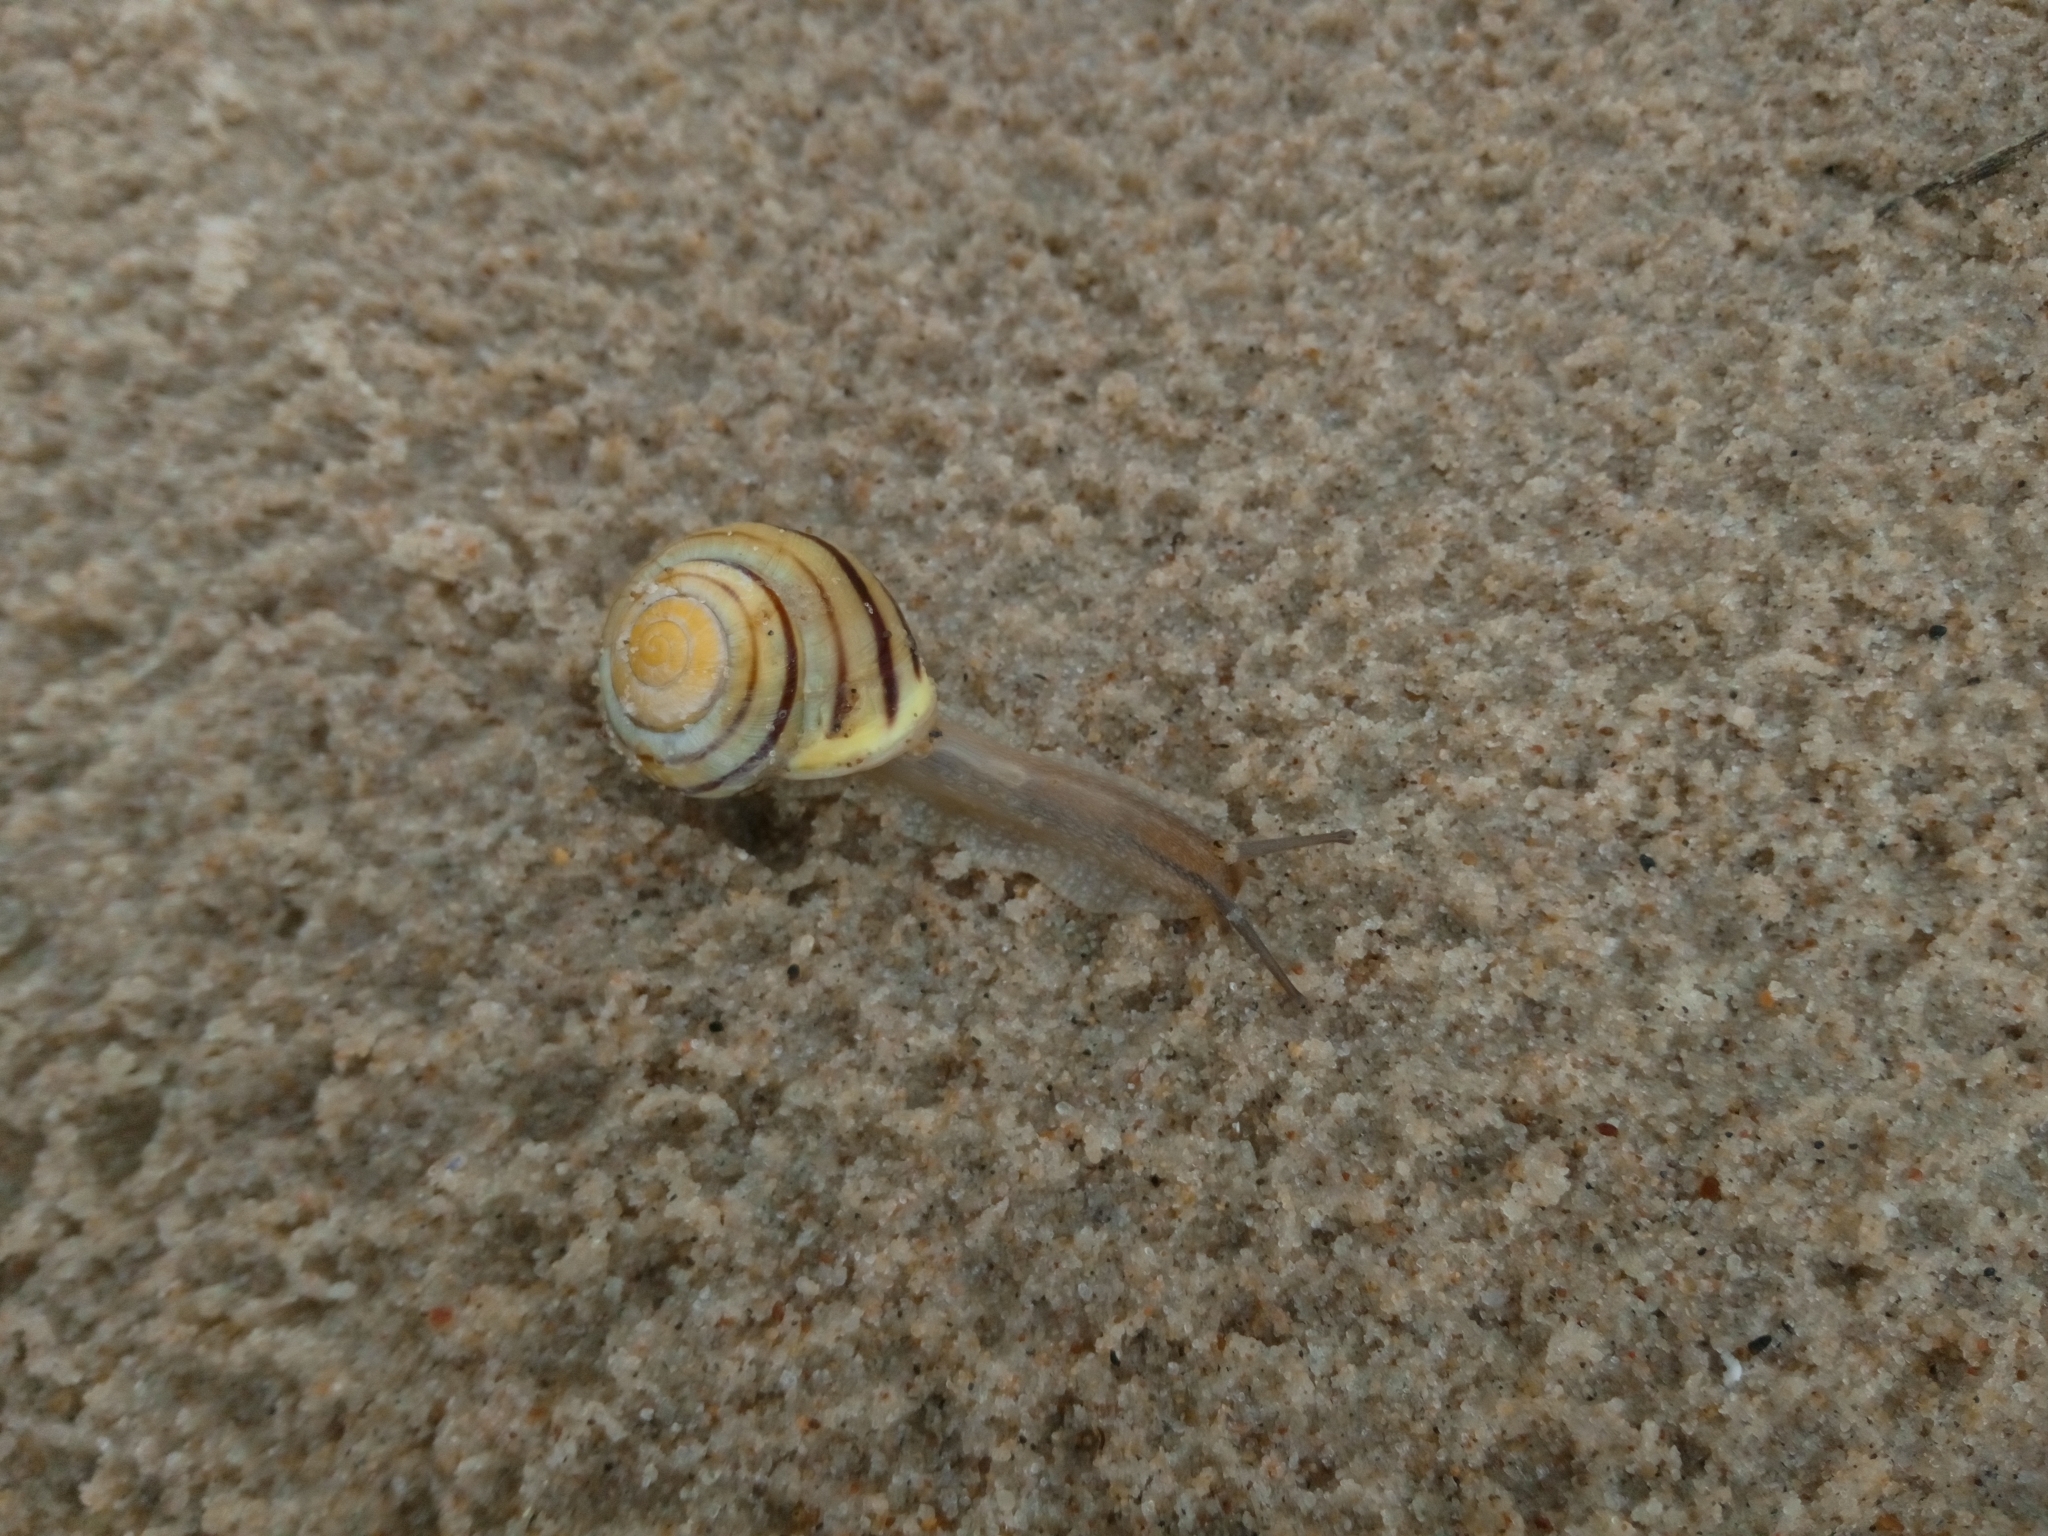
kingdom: Animalia
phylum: Mollusca
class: Gastropoda
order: Stylommatophora
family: Helicidae
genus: Cepaea
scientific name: Cepaea hortensis
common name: White-lip gardensnail
